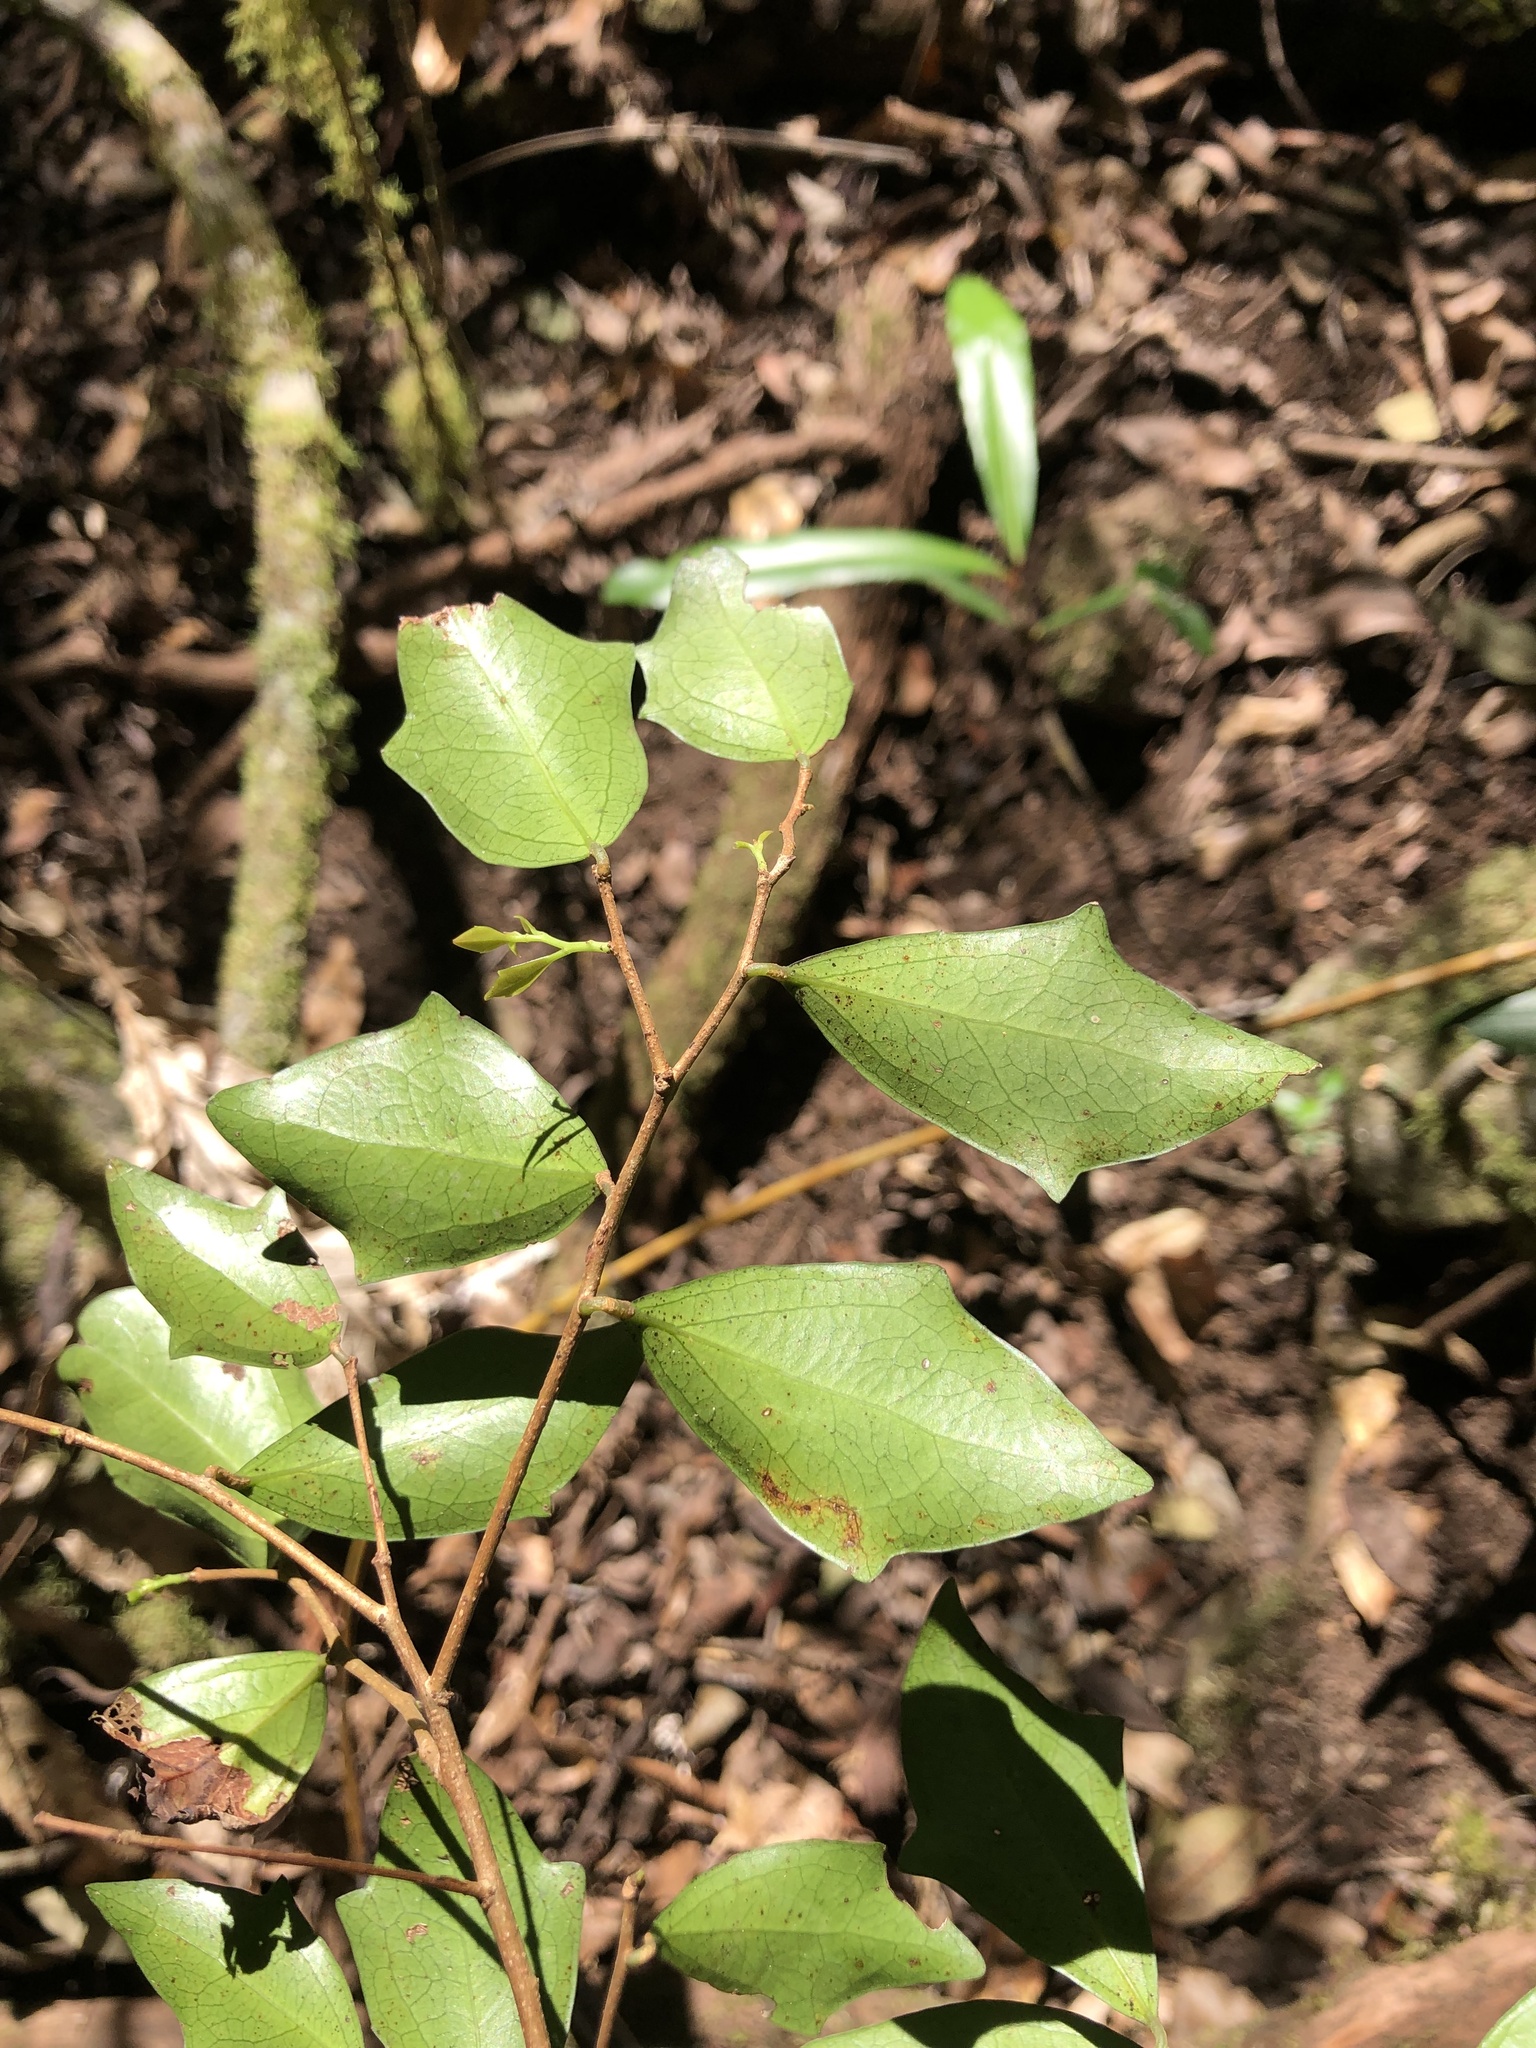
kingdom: Plantae
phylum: Tracheophyta
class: Magnoliopsida
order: Malpighiales
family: Salicaceae
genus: Scolopia
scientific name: Scolopia braunii
